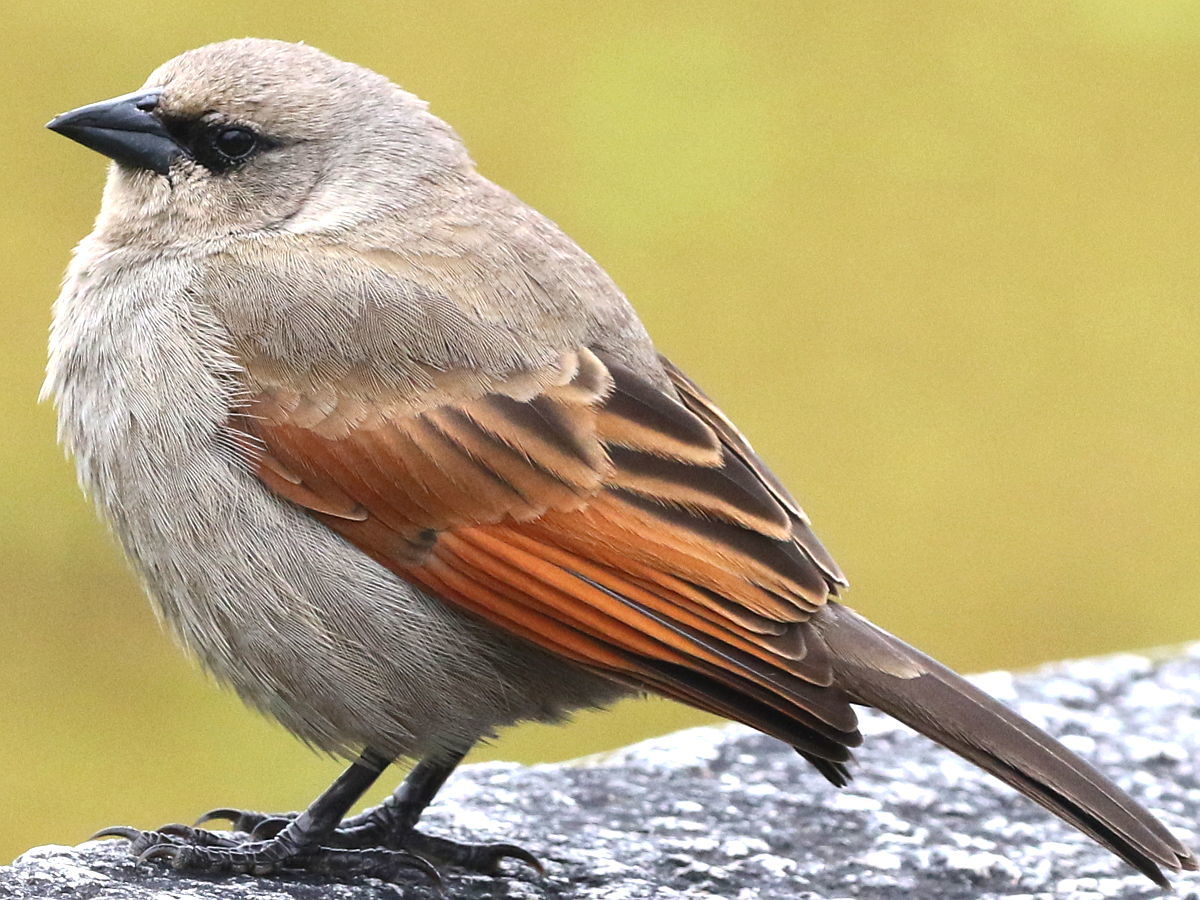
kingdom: Animalia
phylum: Chordata
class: Aves
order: Passeriformes
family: Icteridae
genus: Agelaioides
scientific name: Agelaioides badius
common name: Baywing
